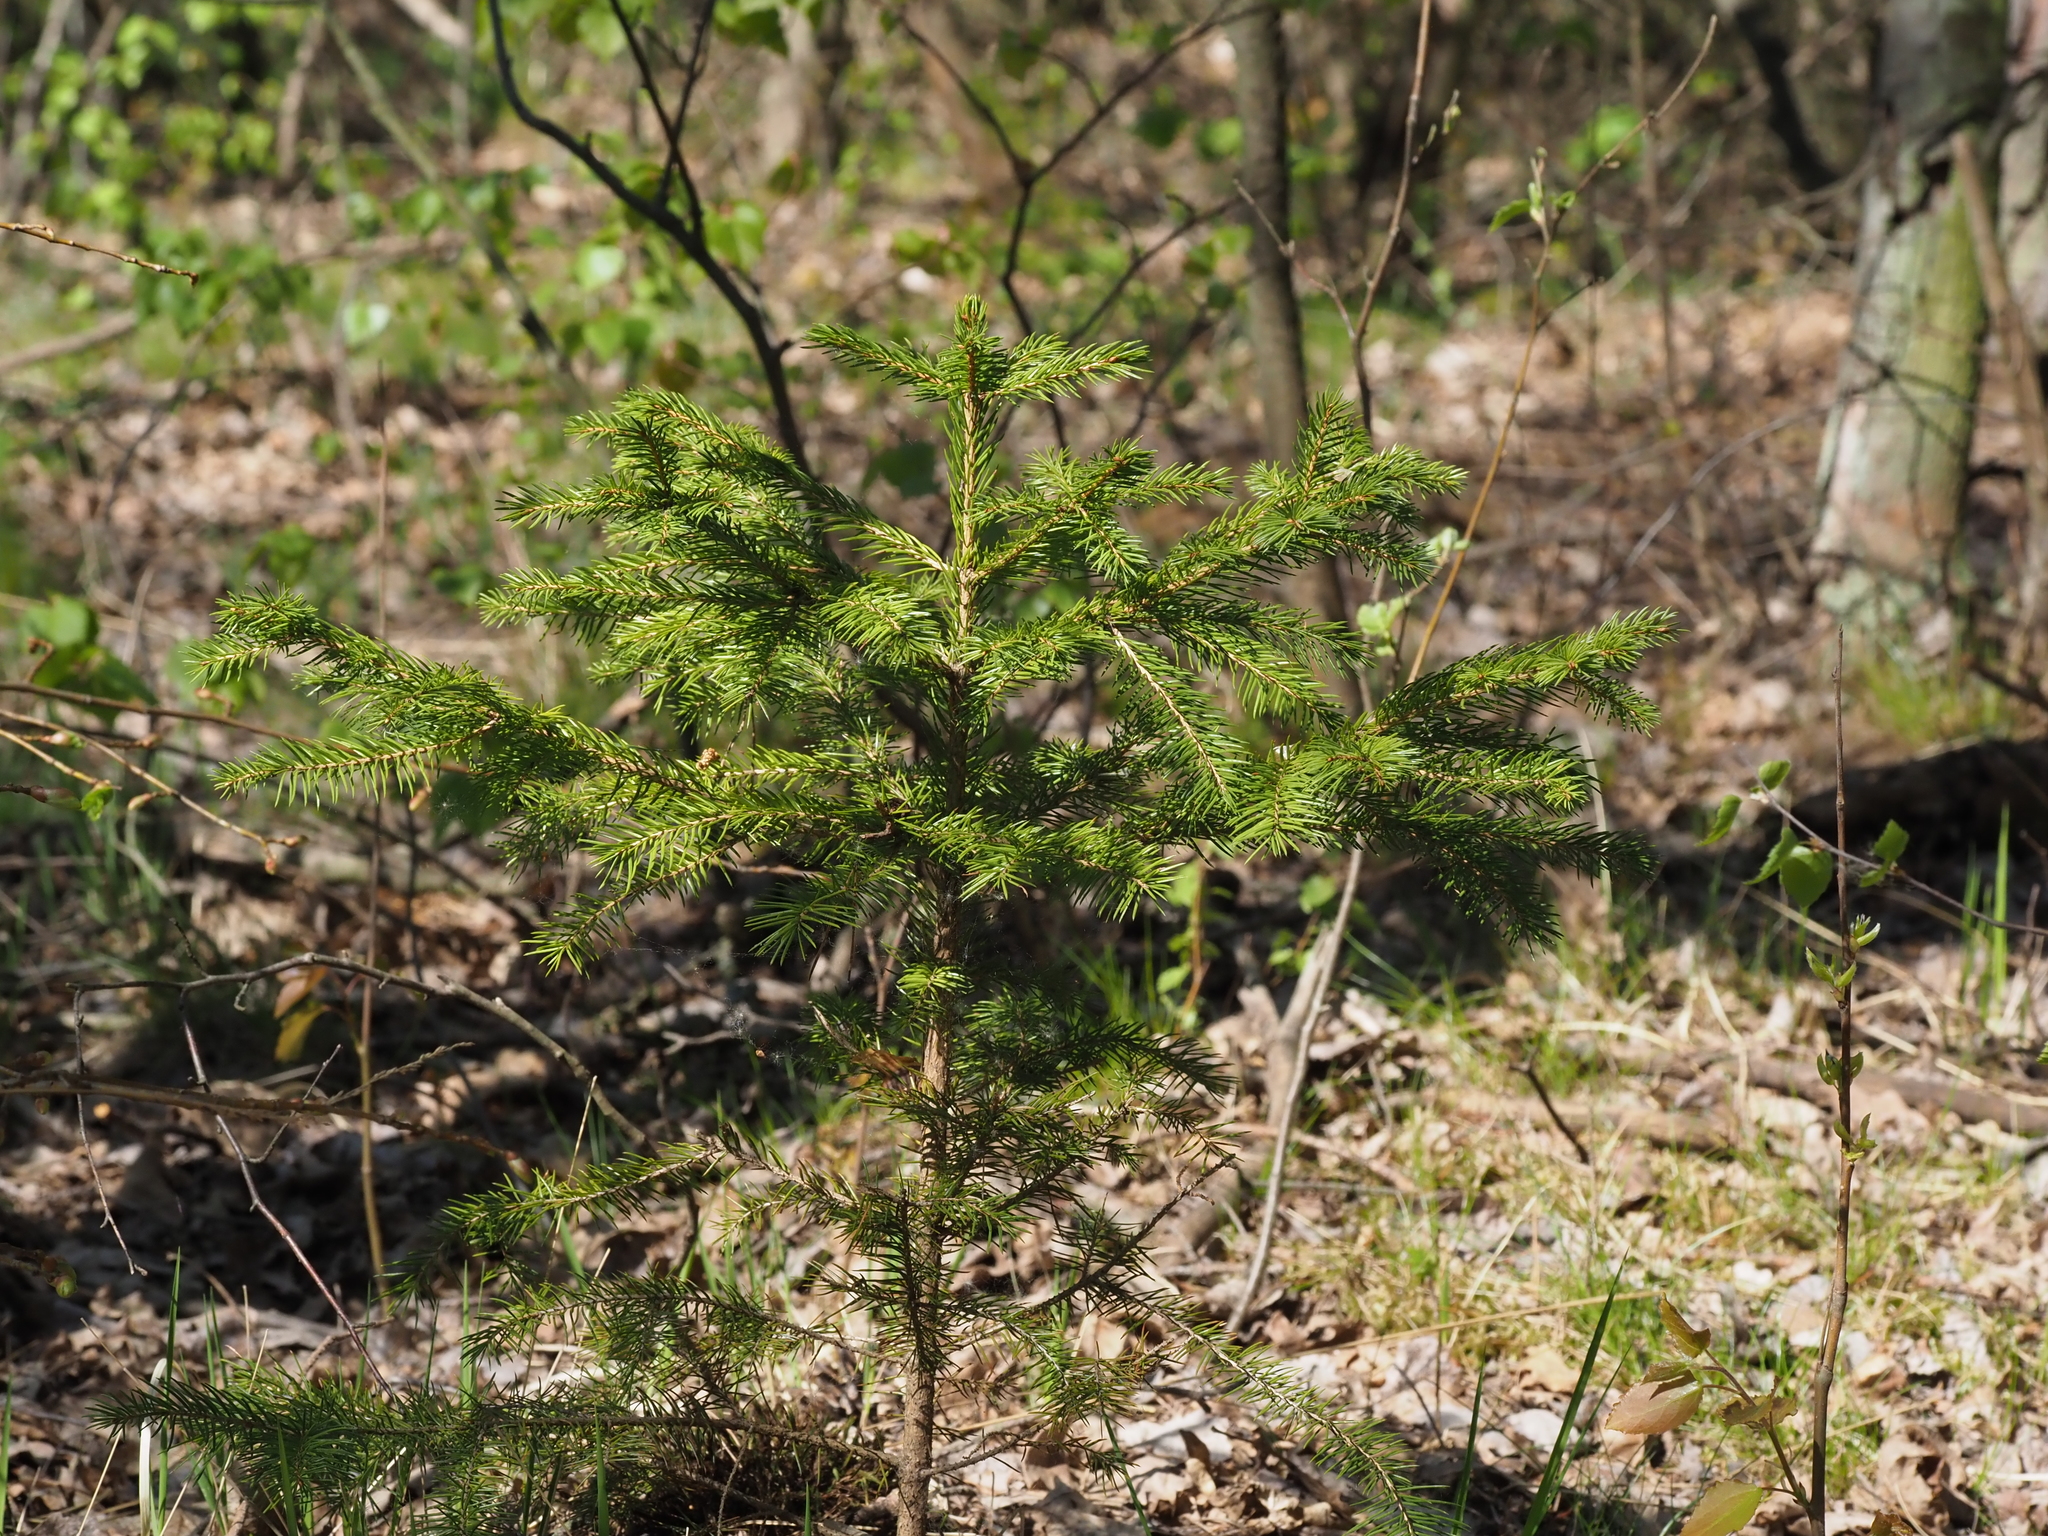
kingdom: Plantae
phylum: Tracheophyta
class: Pinopsida
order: Pinales
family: Pinaceae
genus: Picea
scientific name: Picea abies
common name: Norway spruce
